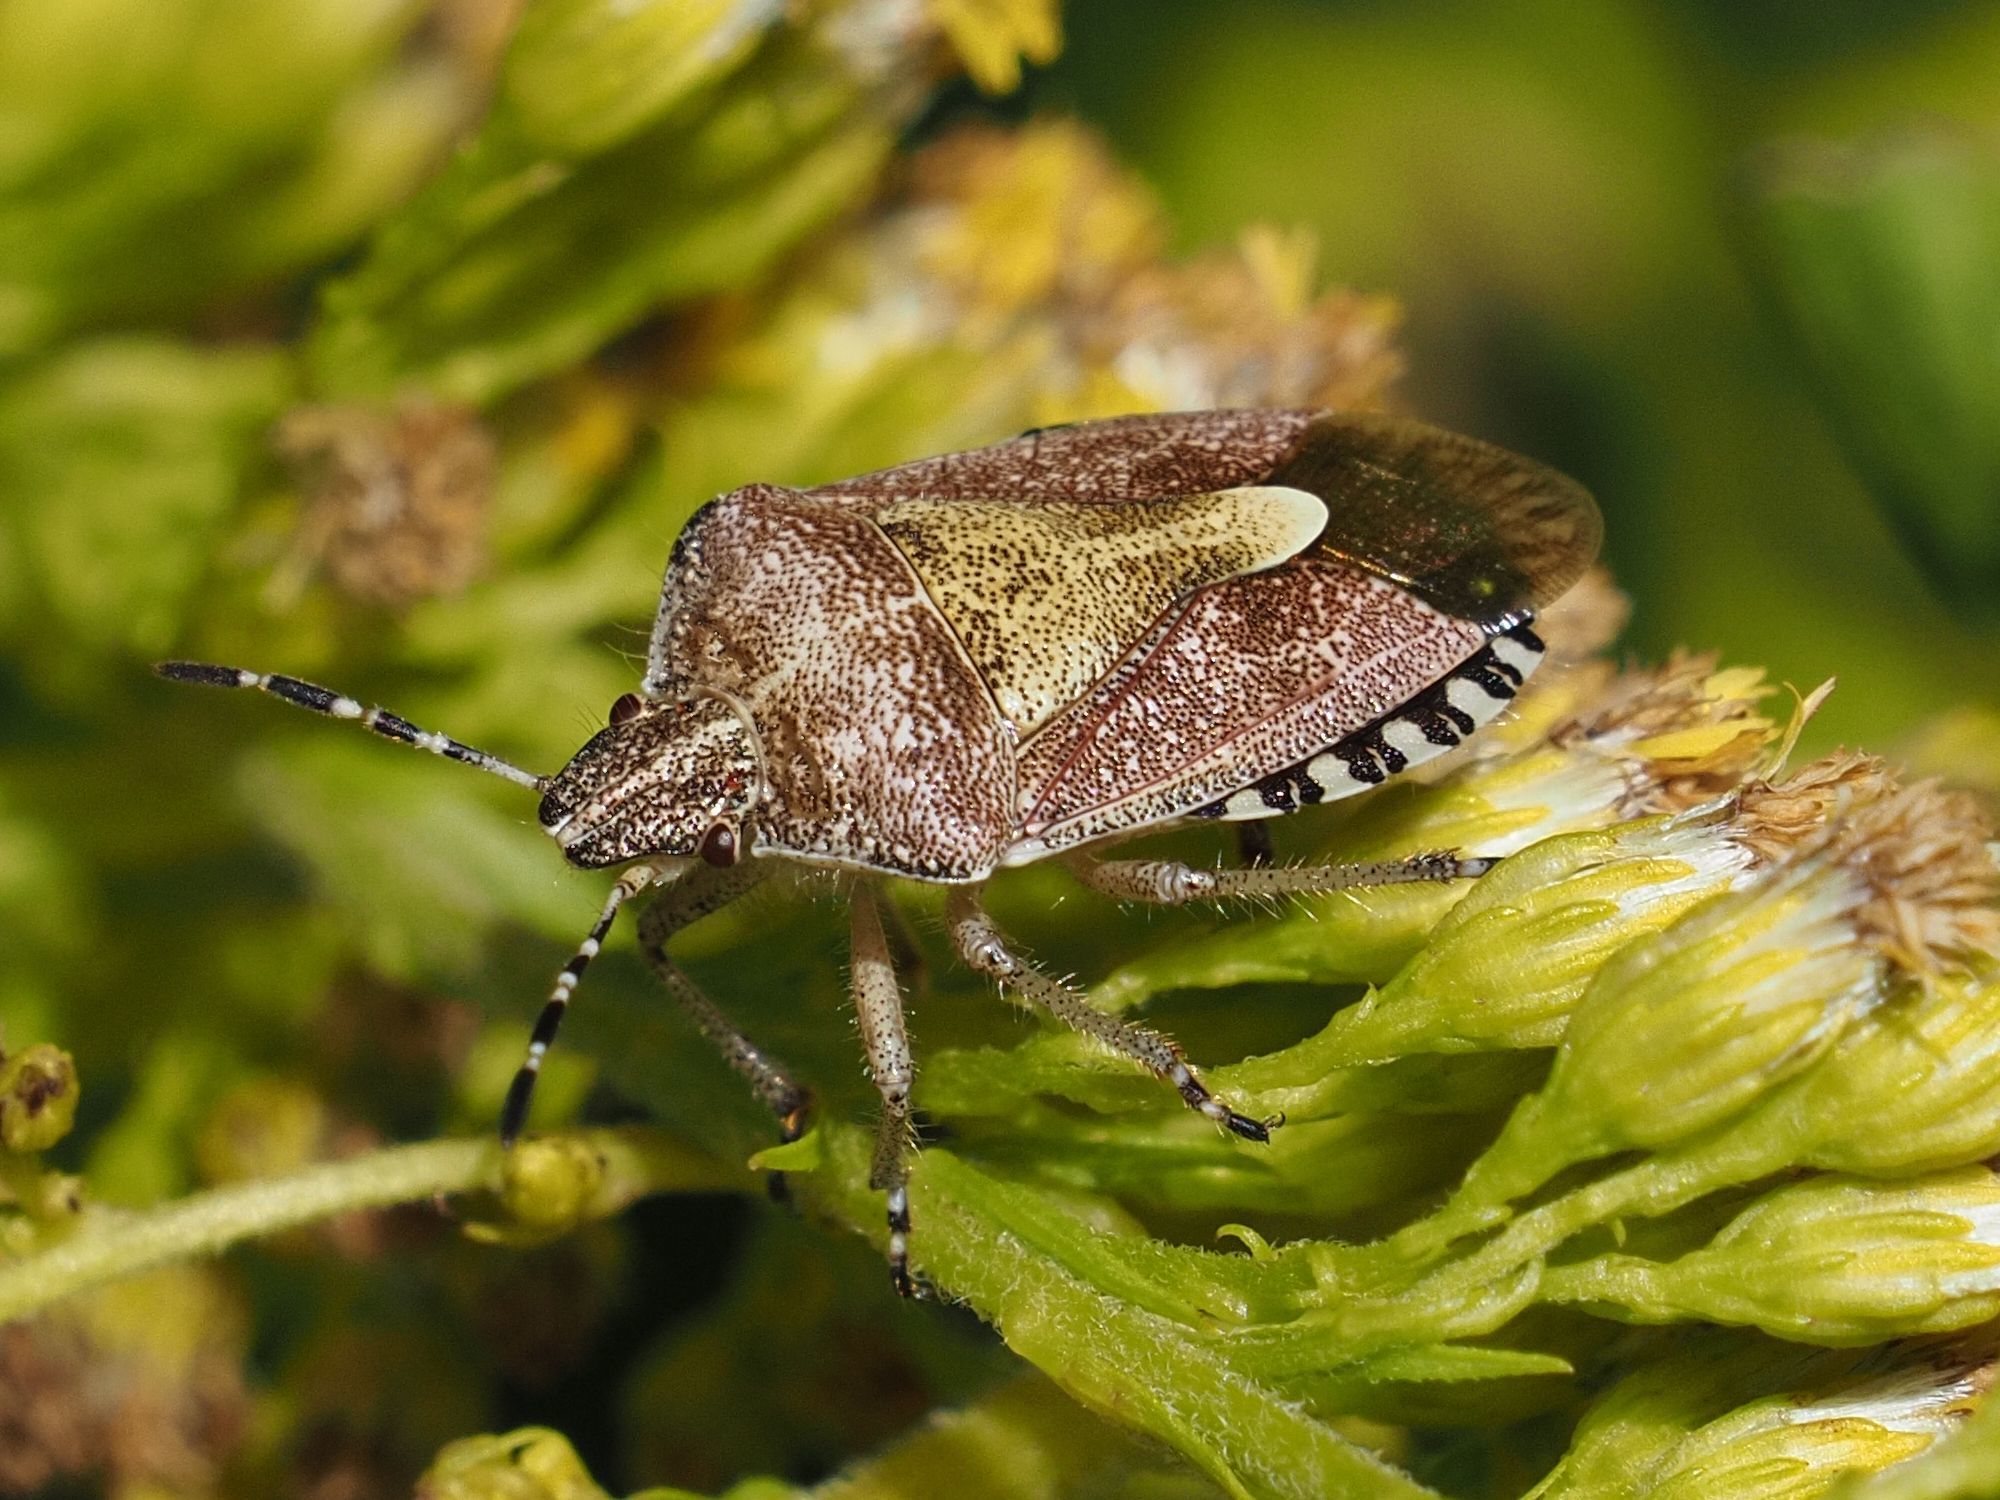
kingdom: Animalia
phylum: Arthropoda
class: Insecta
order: Hemiptera
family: Pentatomidae
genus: Dolycoris
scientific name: Dolycoris baccarum
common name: Sloe bug
